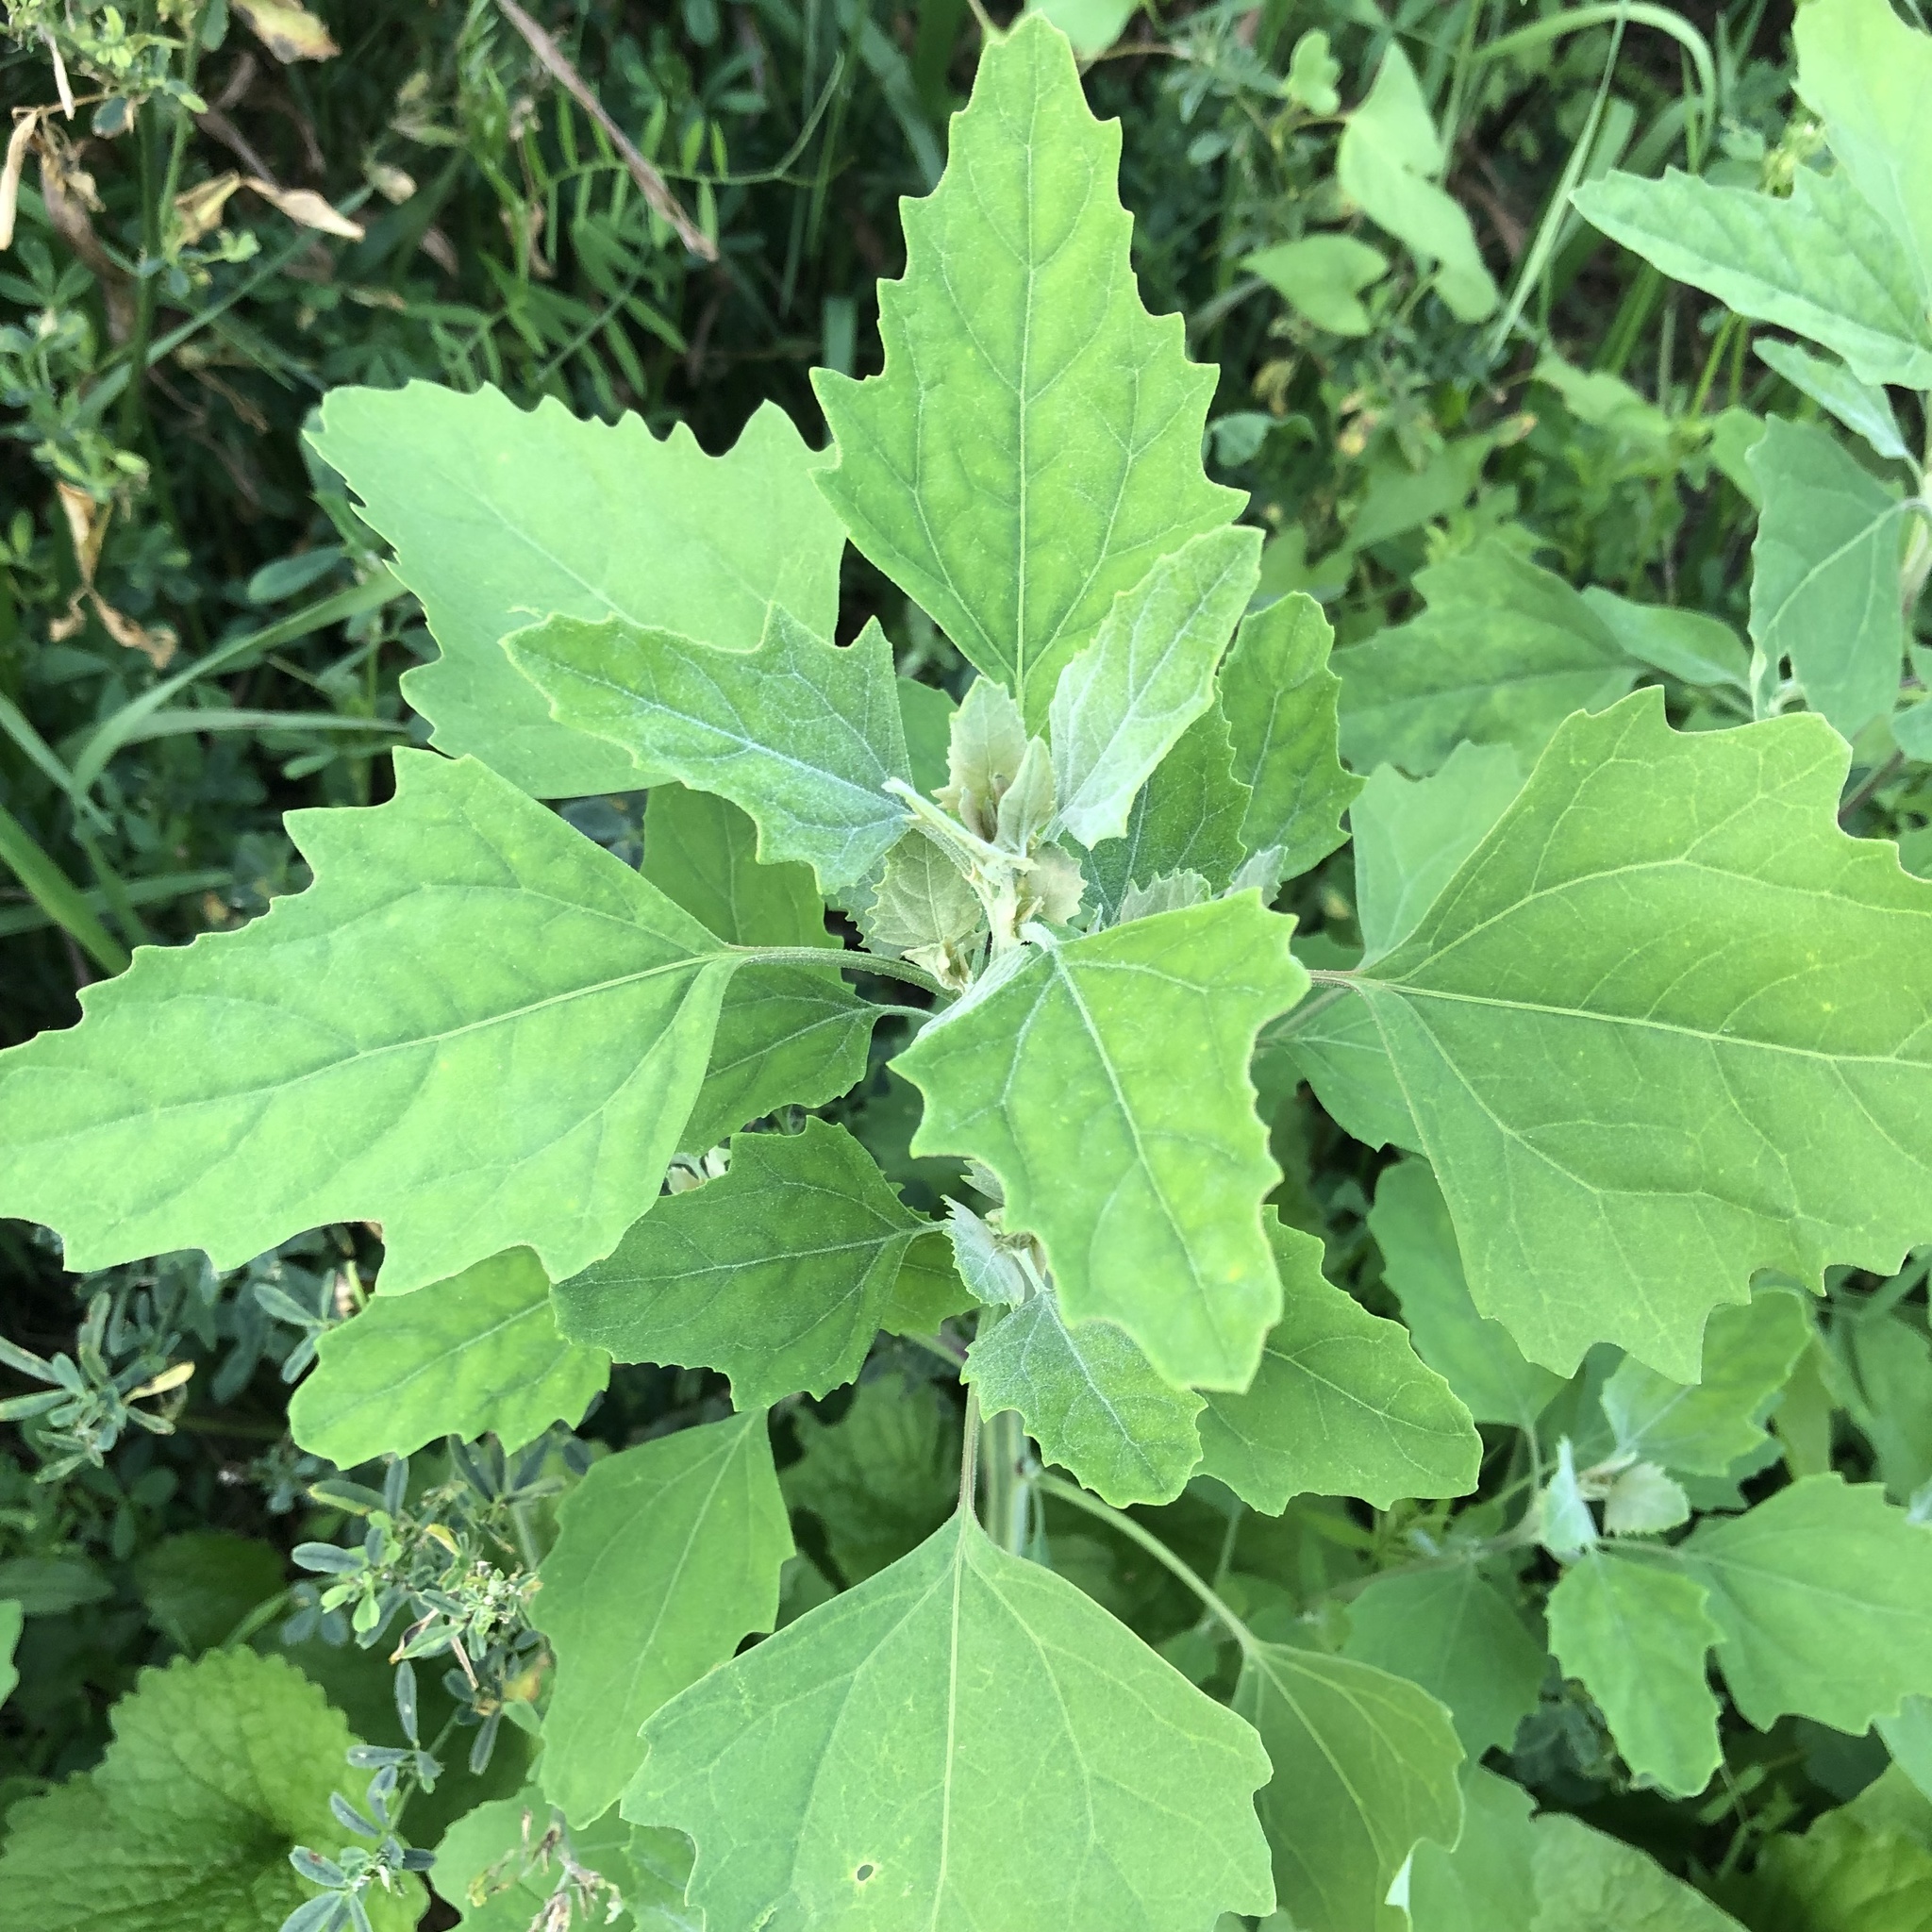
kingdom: Plantae
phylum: Tracheophyta
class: Magnoliopsida
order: Caryophyllales
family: Amaranthaceae
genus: Chenopodium
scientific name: Chenopodium album
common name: Fat-hen
